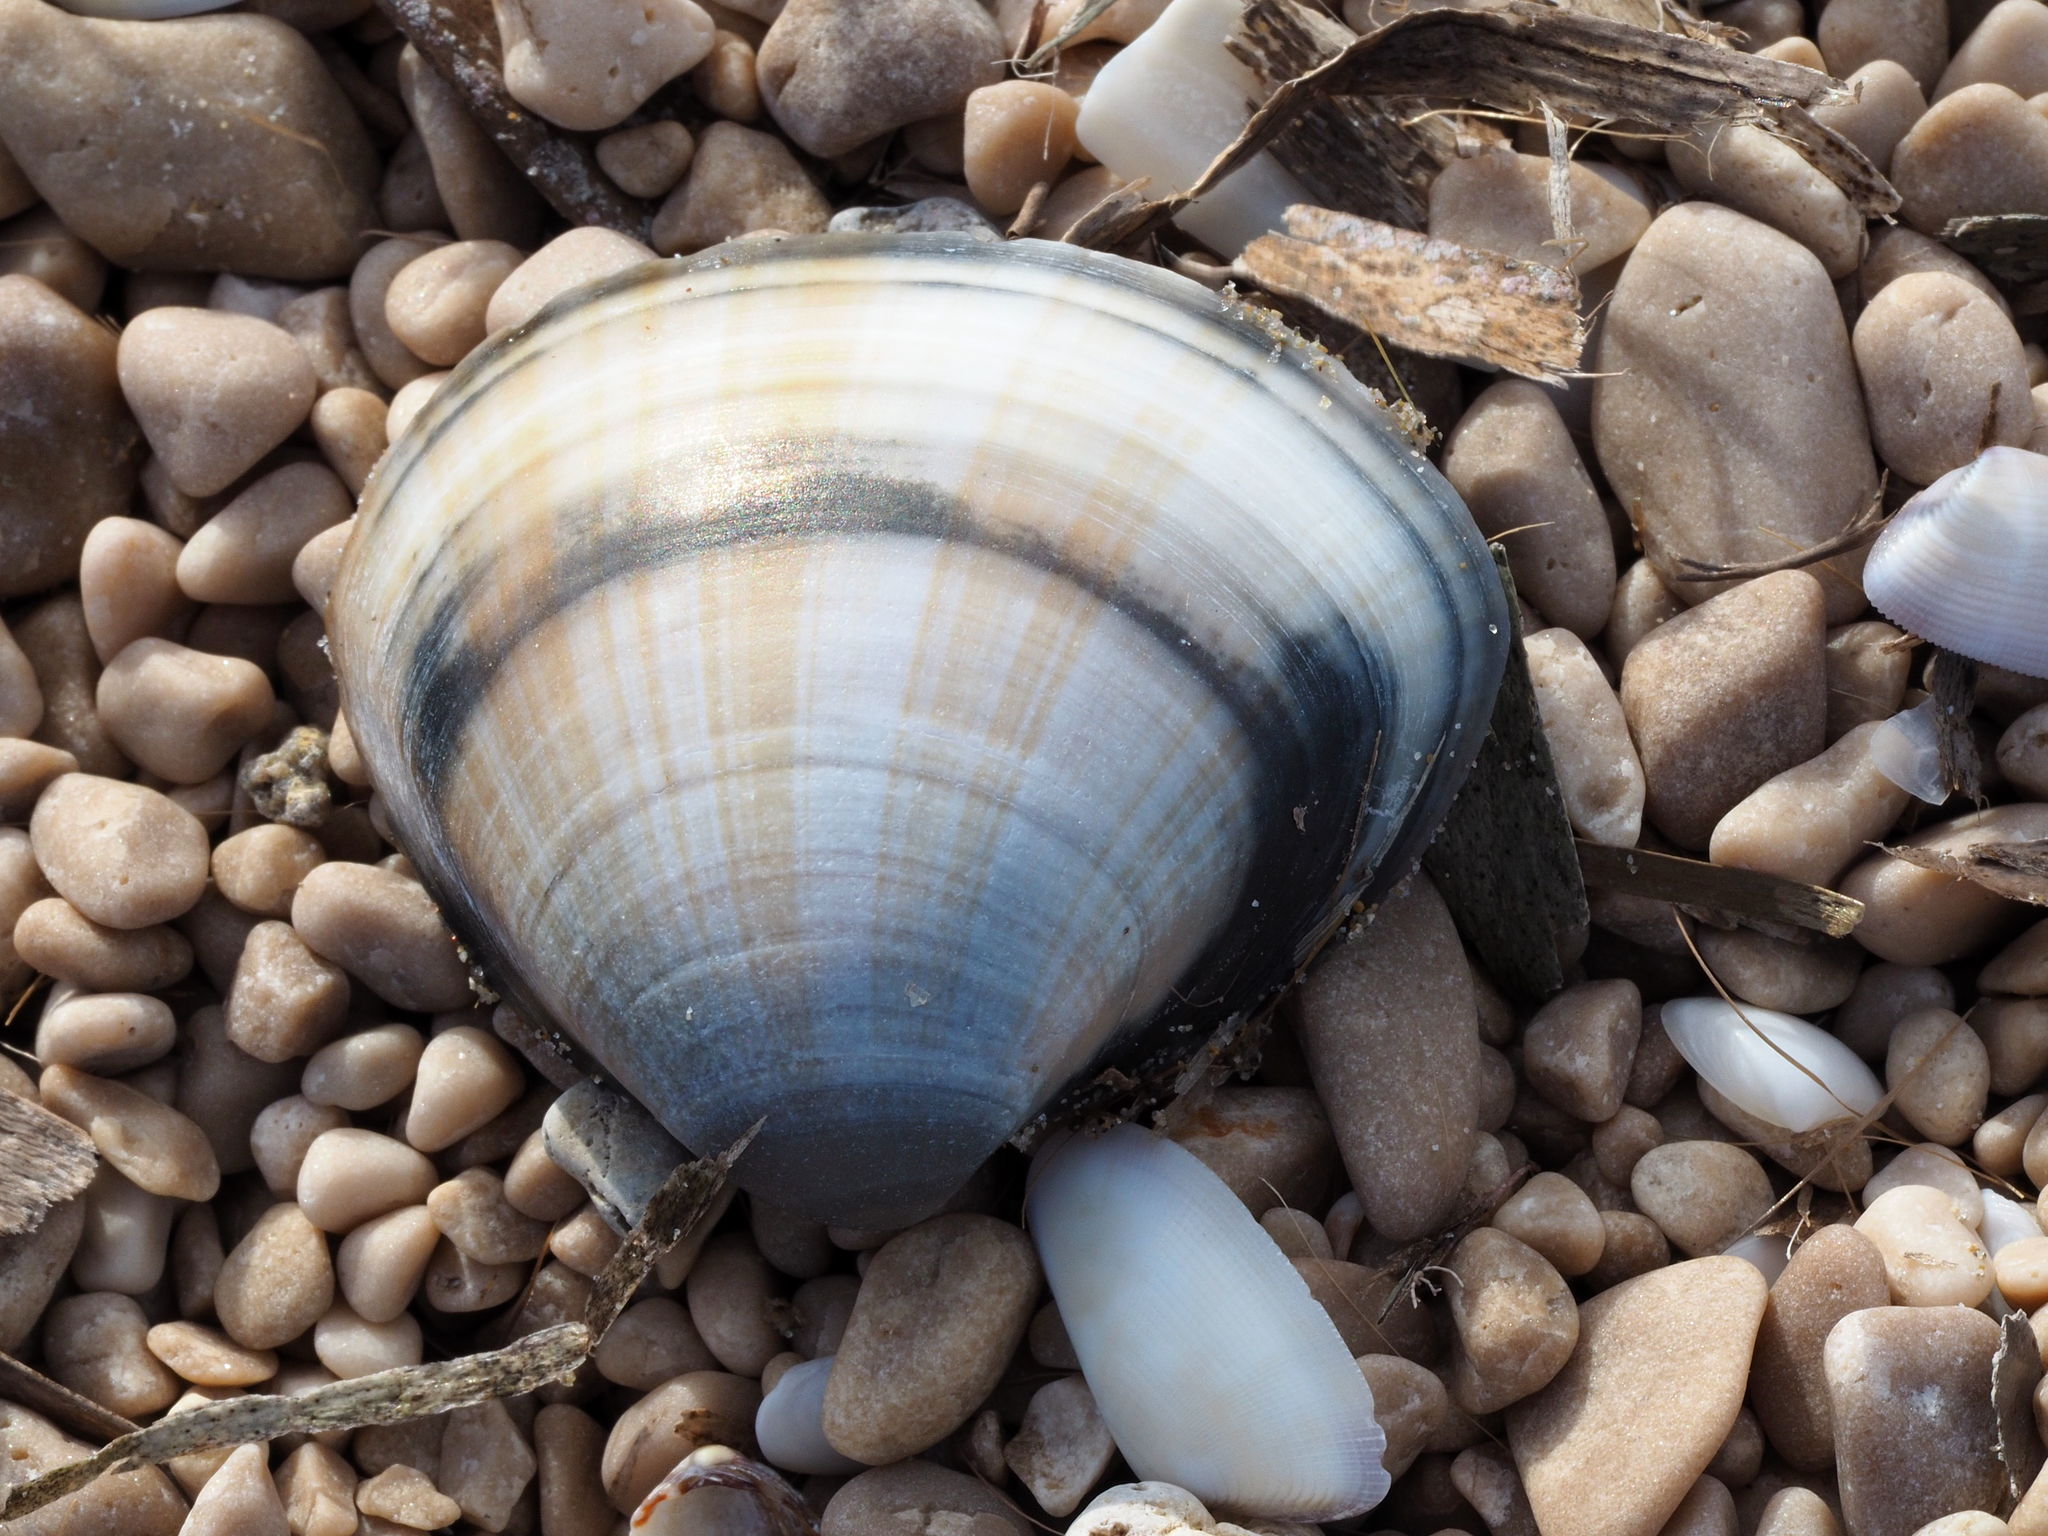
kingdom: Animalia
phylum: Mollusca
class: Bivalvia
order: Venerida
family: Mactridae
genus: Mactra
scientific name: Mactra stultorum
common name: Rayed trough shell
